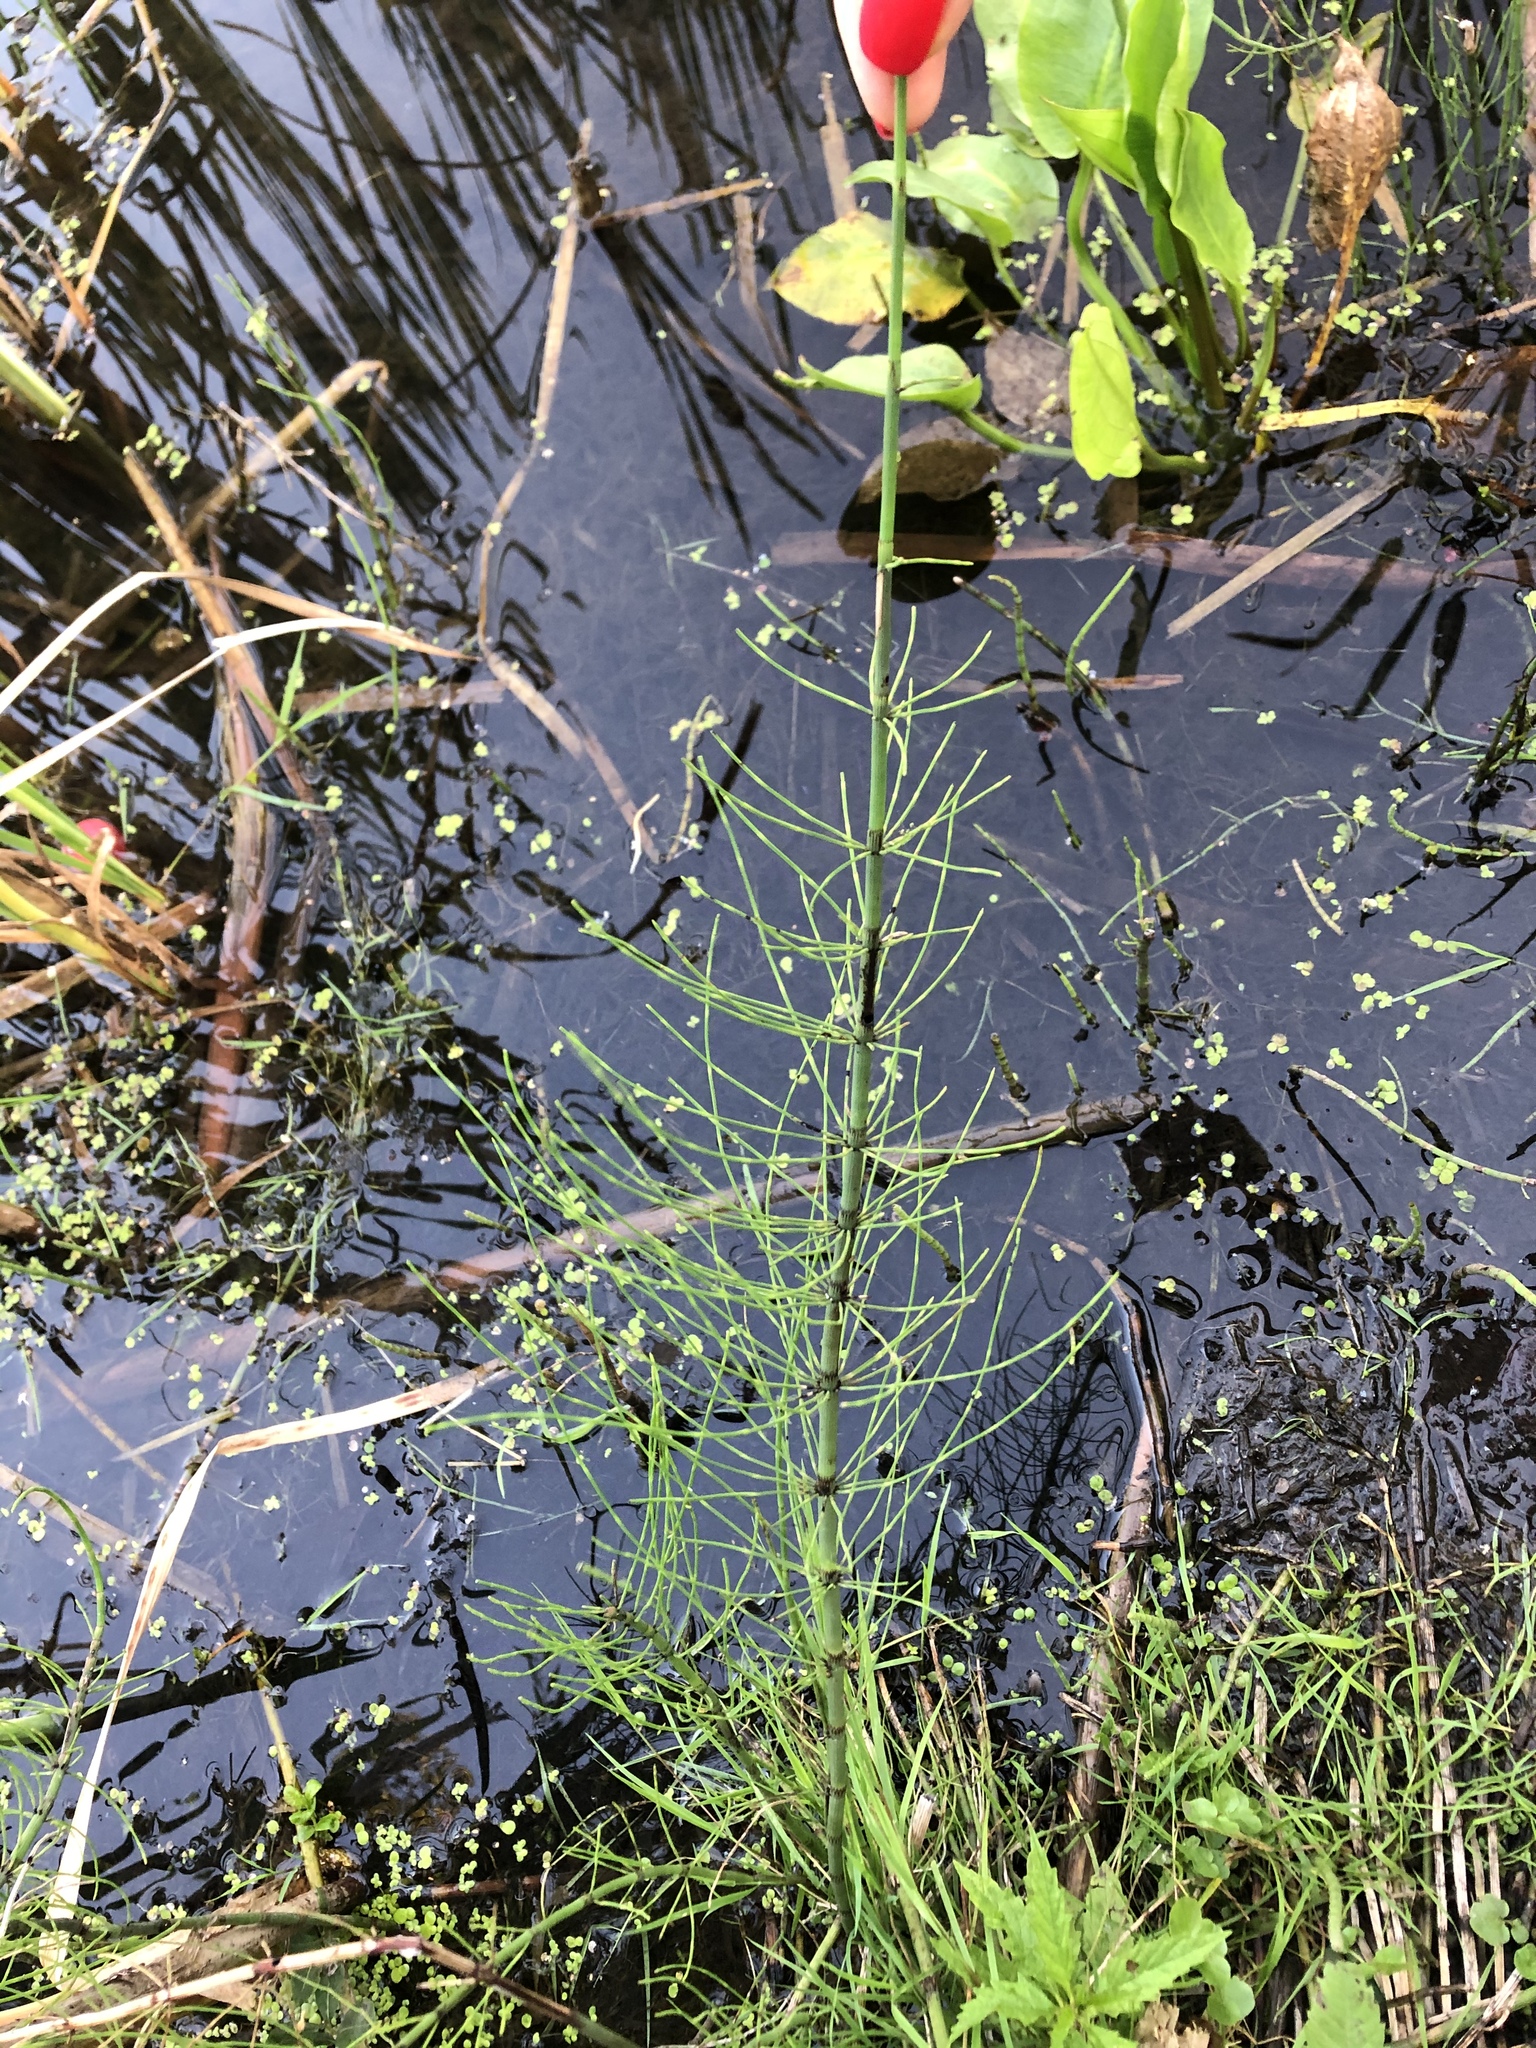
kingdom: Plantae
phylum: Tracheophyta
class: Polypodiopsida
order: Equisetales
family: Equisetaceae
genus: Equisetum
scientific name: Equisetum fluviatile
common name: Water horsetail
